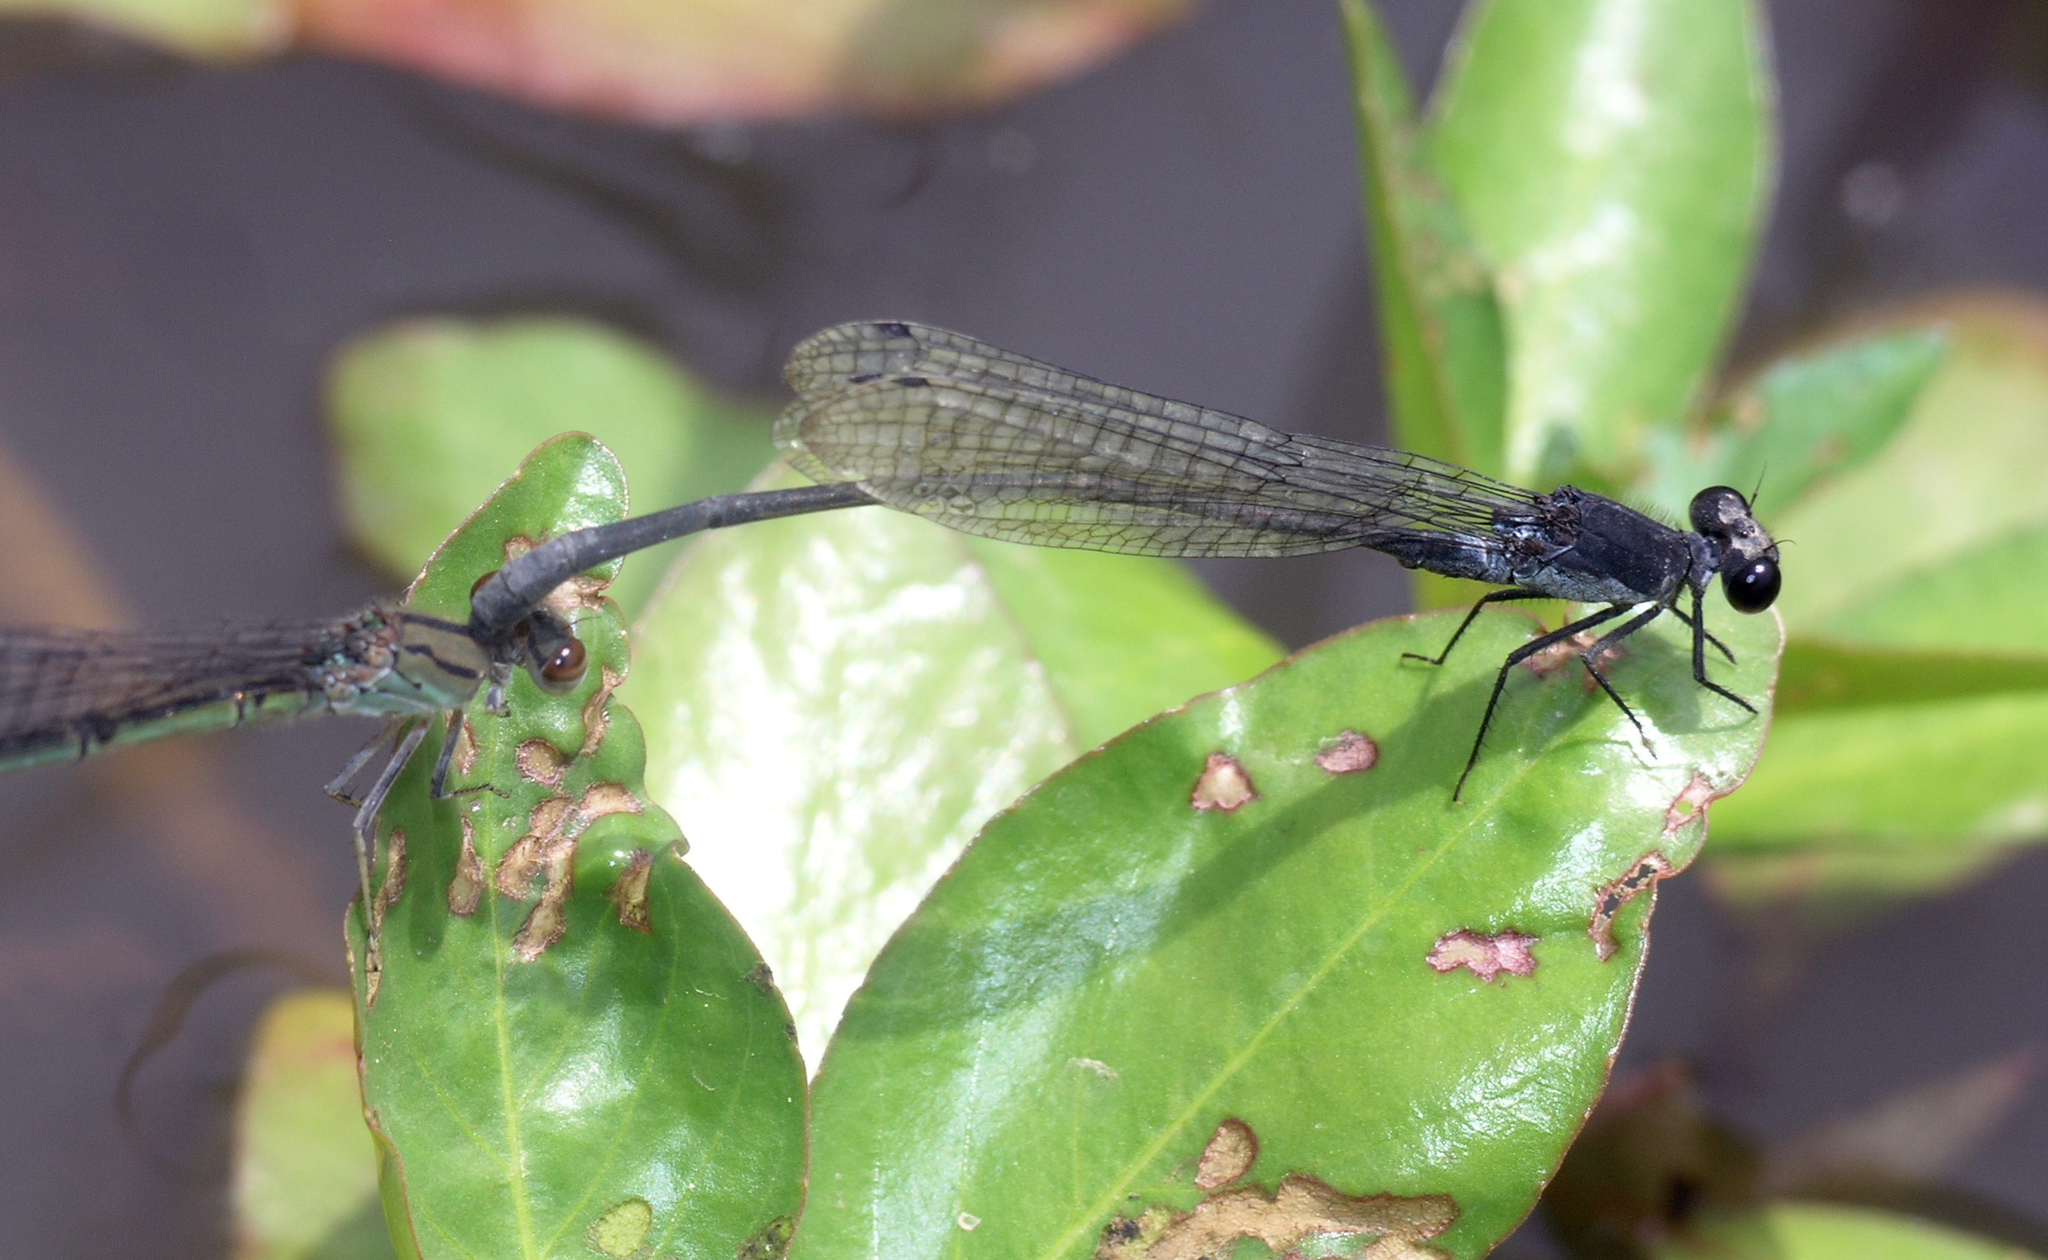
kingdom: Animalia
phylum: Arthropoda
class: Insecta
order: Odonata
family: Coenagrionidae
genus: Pseudagrion
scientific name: Pseudagrion commoniae
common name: Black sprite
